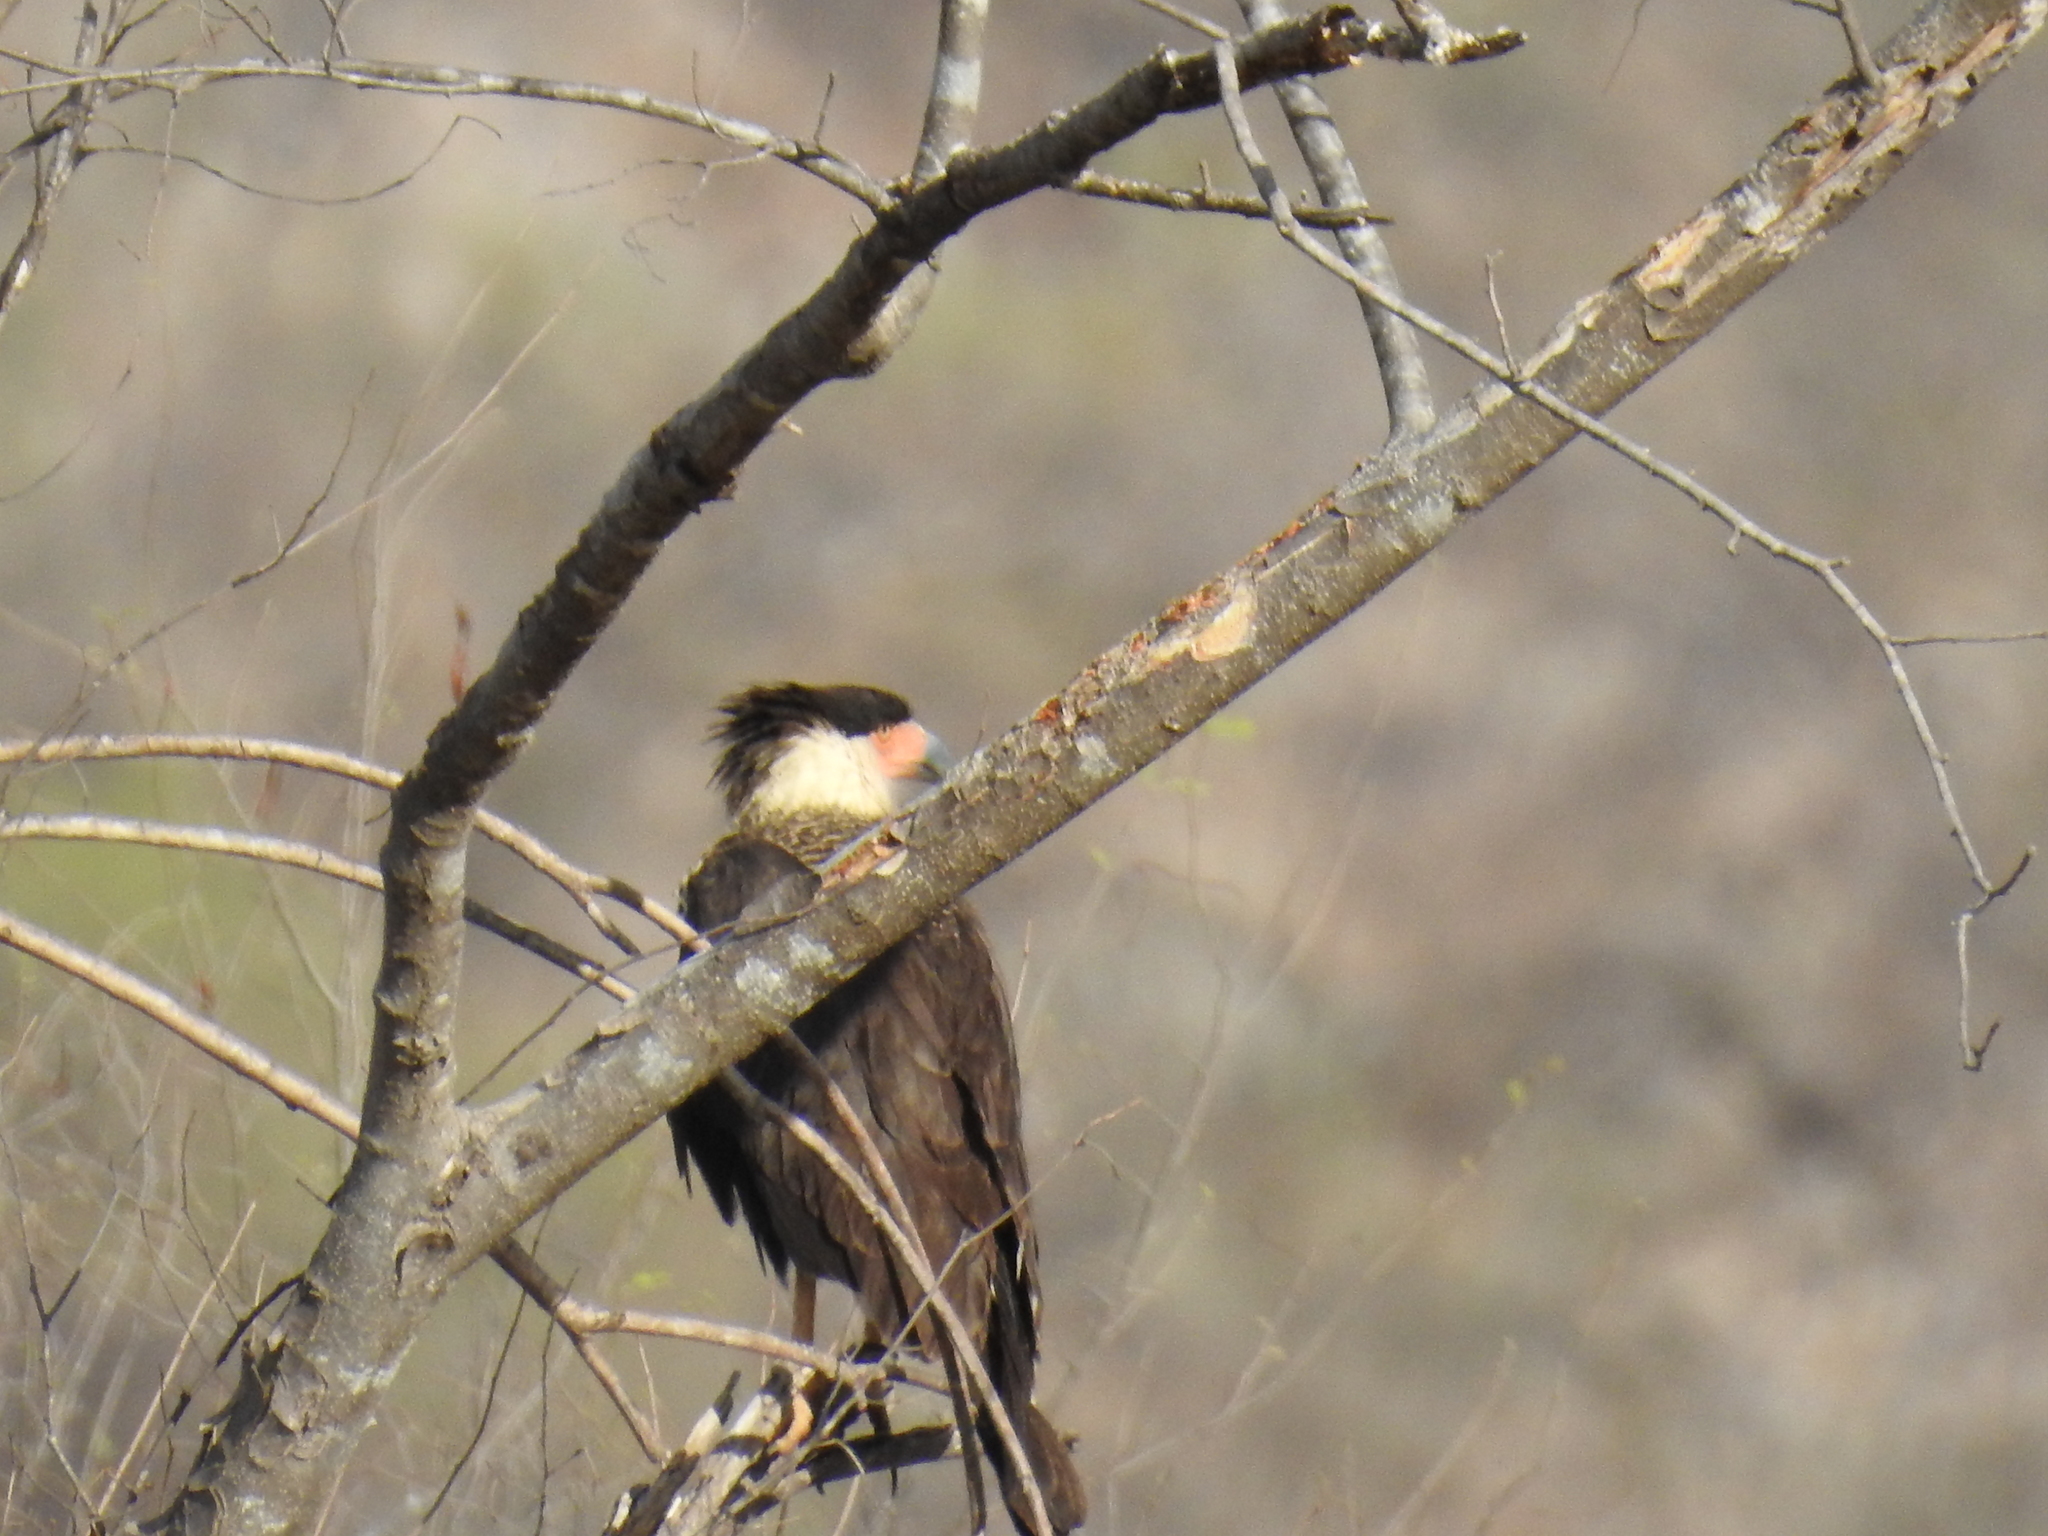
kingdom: Animalia
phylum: Chordata
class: Aves
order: Falconiformes
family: Falconidae
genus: Caracara
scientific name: Caracara plancus
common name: Southern caracara
